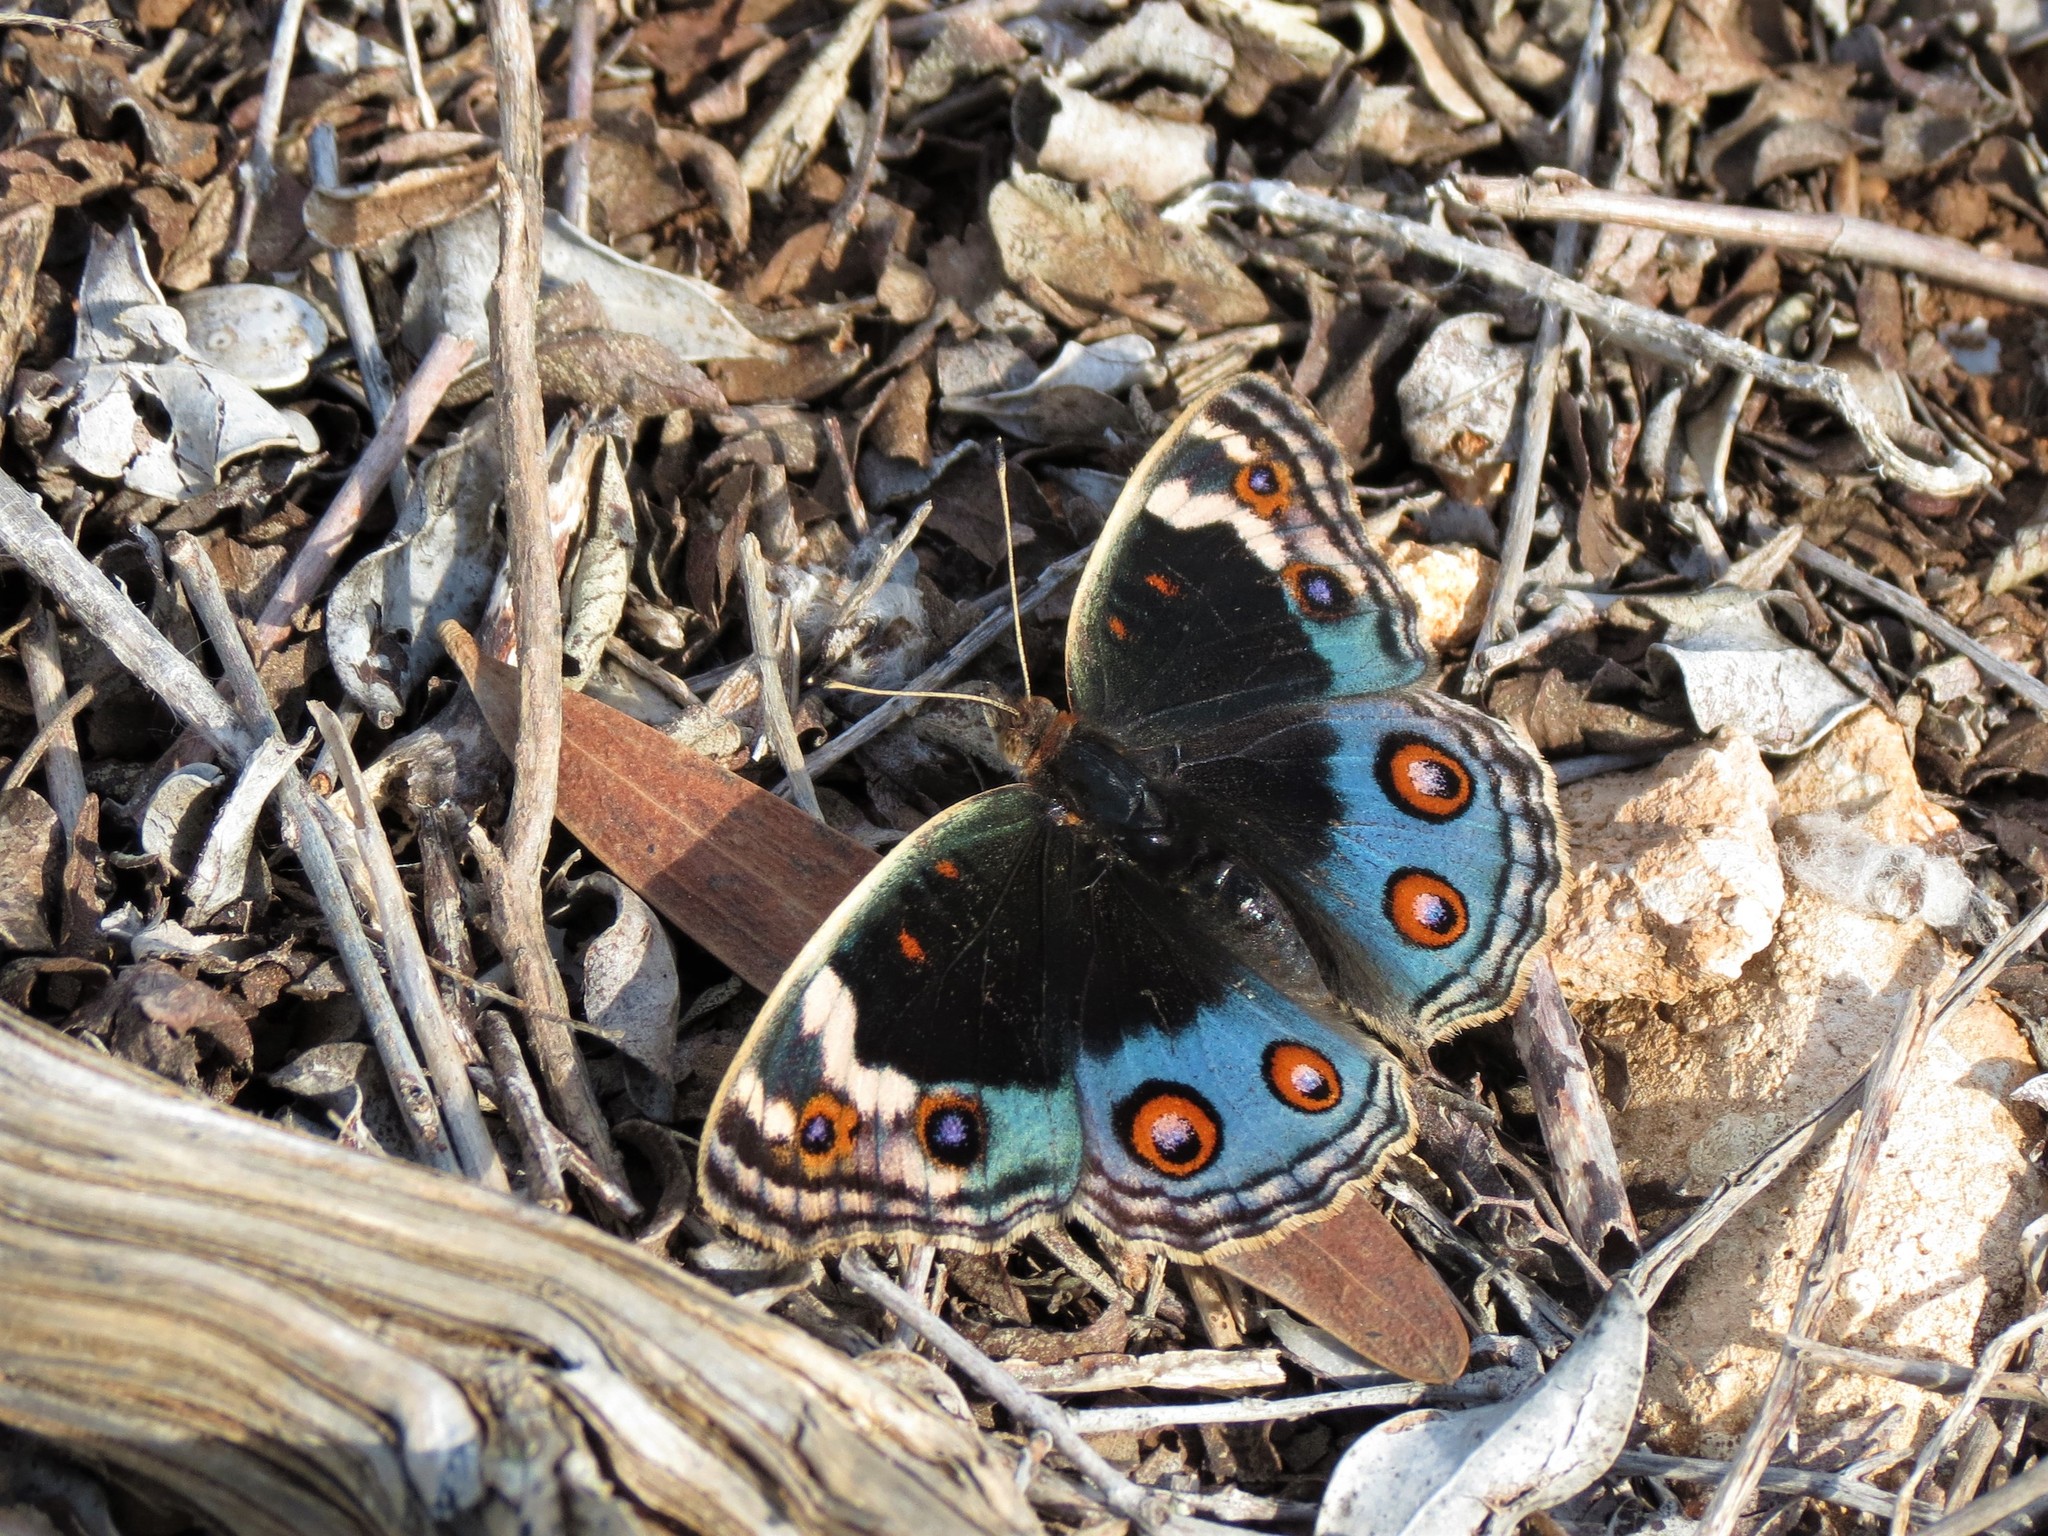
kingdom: Animalia
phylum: Arthropoda
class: Insecta
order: Lepidoptera
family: Nymphalidae
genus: Junonia
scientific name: Junonia orithya
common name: Blue pansy
